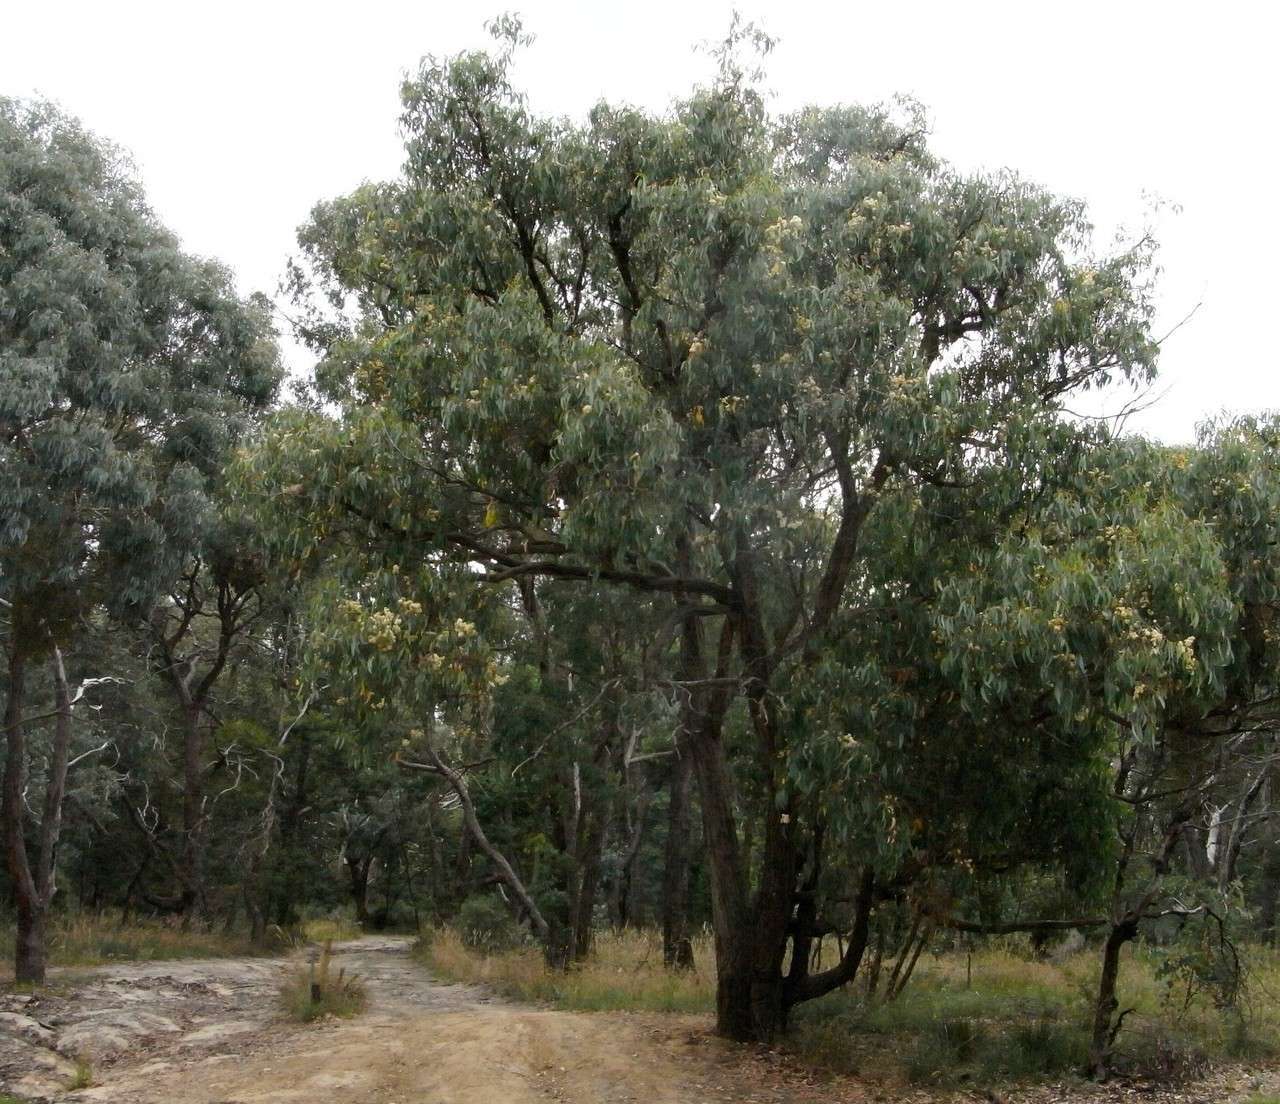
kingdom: Plantae
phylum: Tracheophyta
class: Magnoliopsida
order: Myrtales
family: Myrtaceae
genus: Eucalyptus
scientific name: Eucalyptus obliqua
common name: Messmate stringybark
